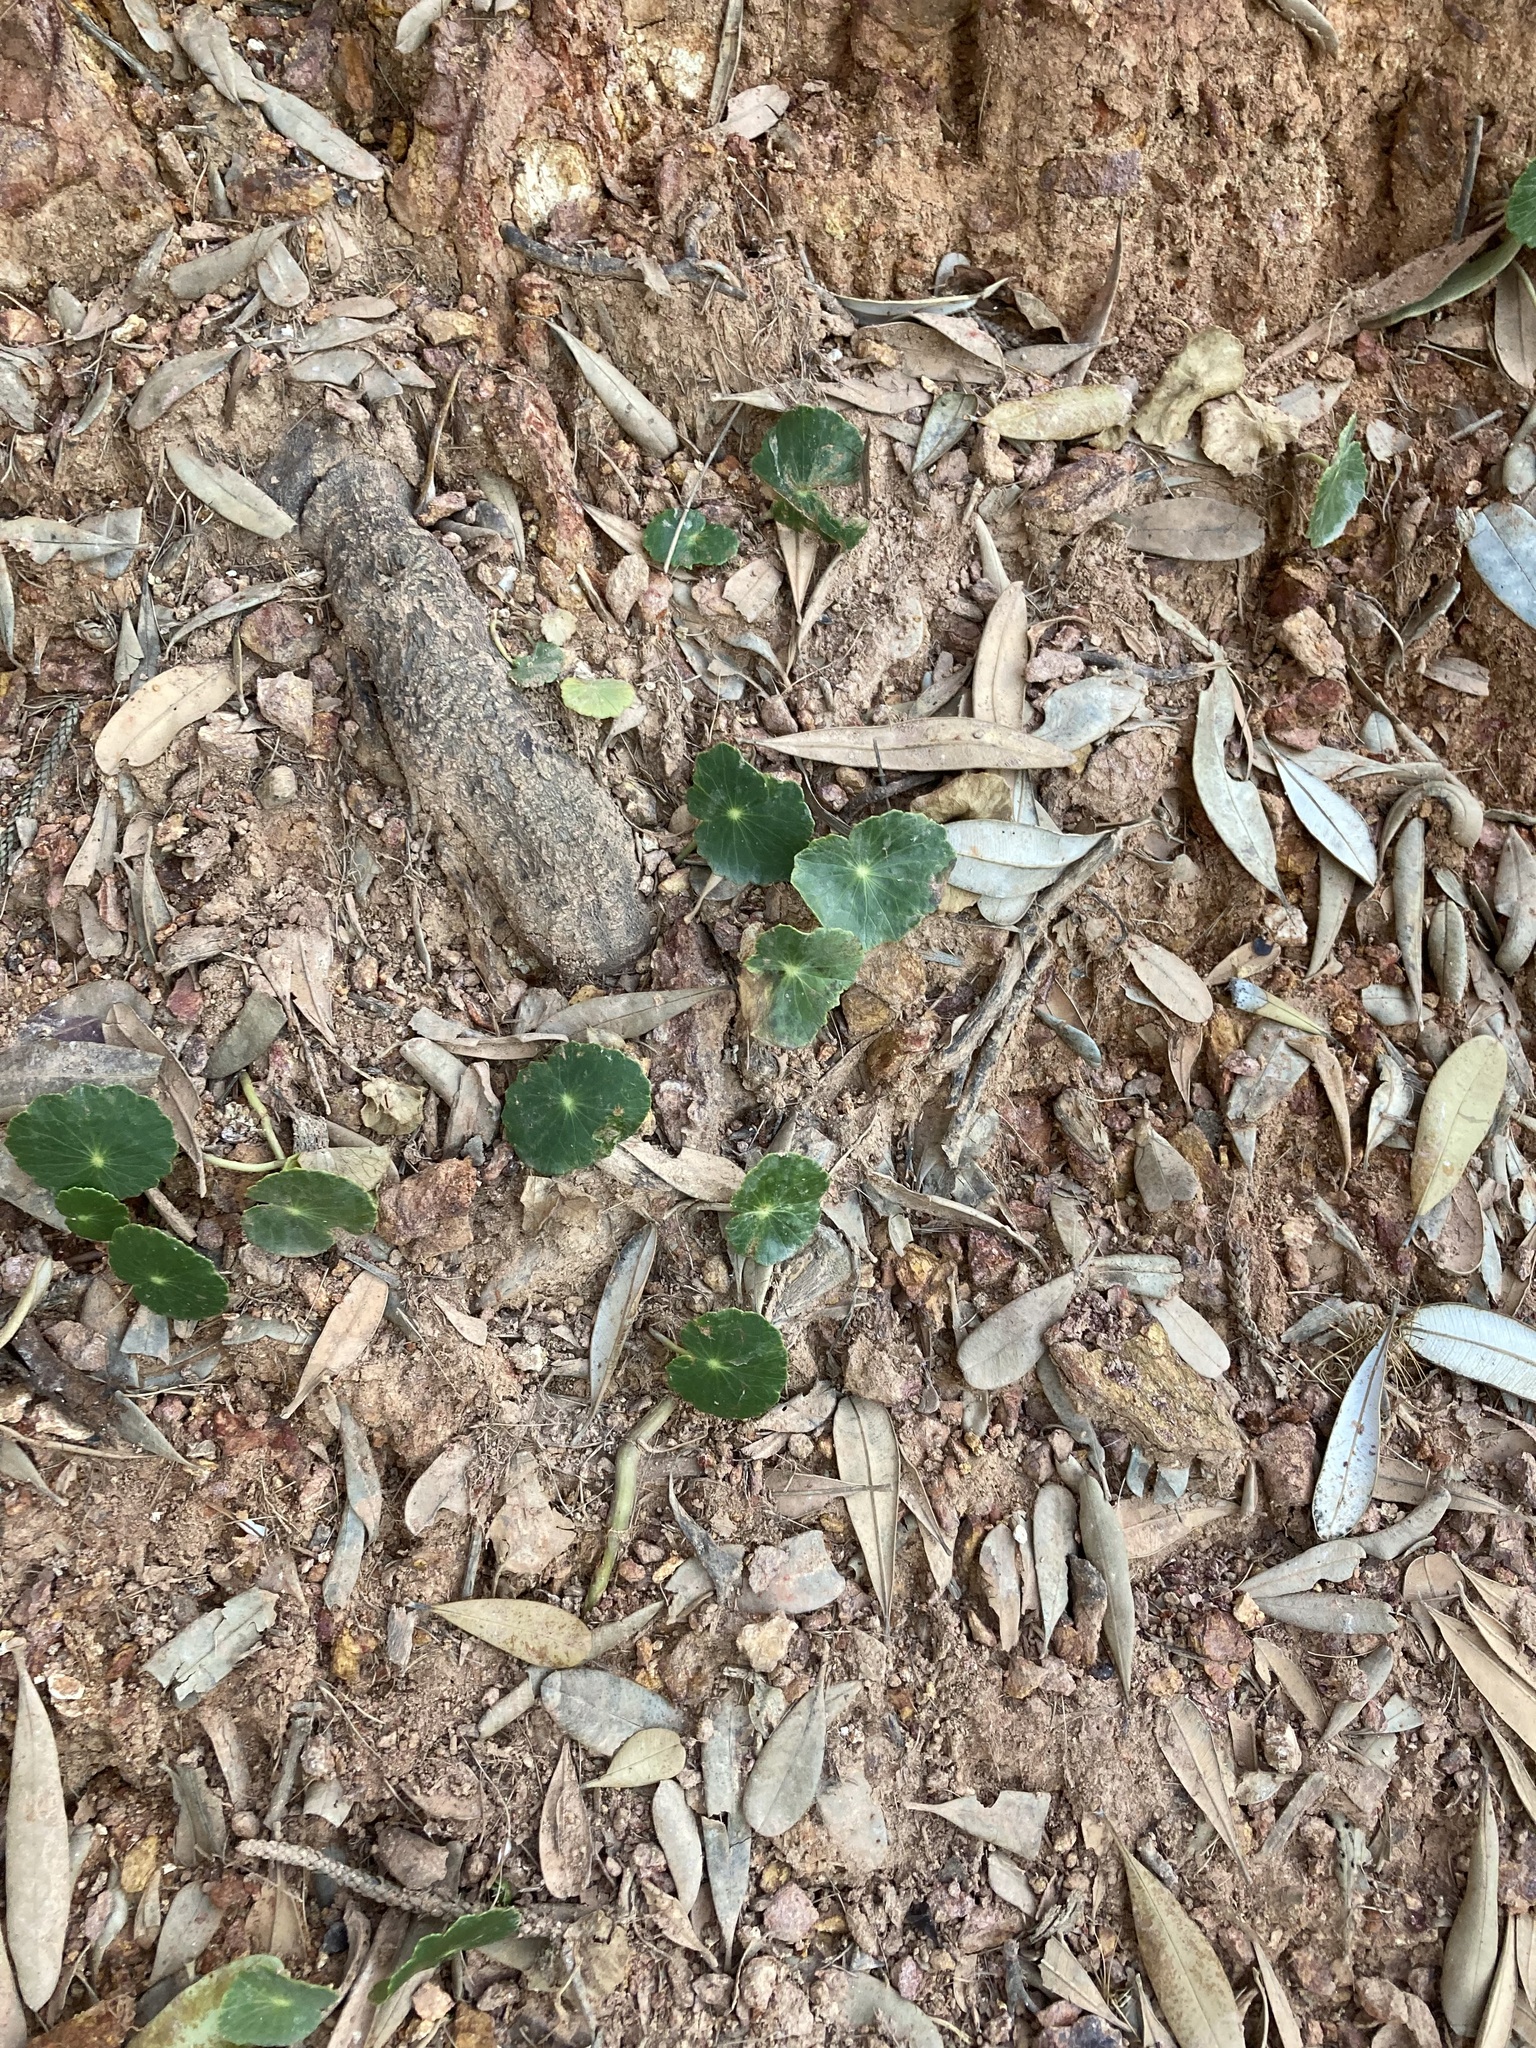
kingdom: Plantae
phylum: Tracheophyta
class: Magnoliopsida
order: Apiales
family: Araliaceae
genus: Hydrocotyle
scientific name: Hydrocotyle bonariensis
